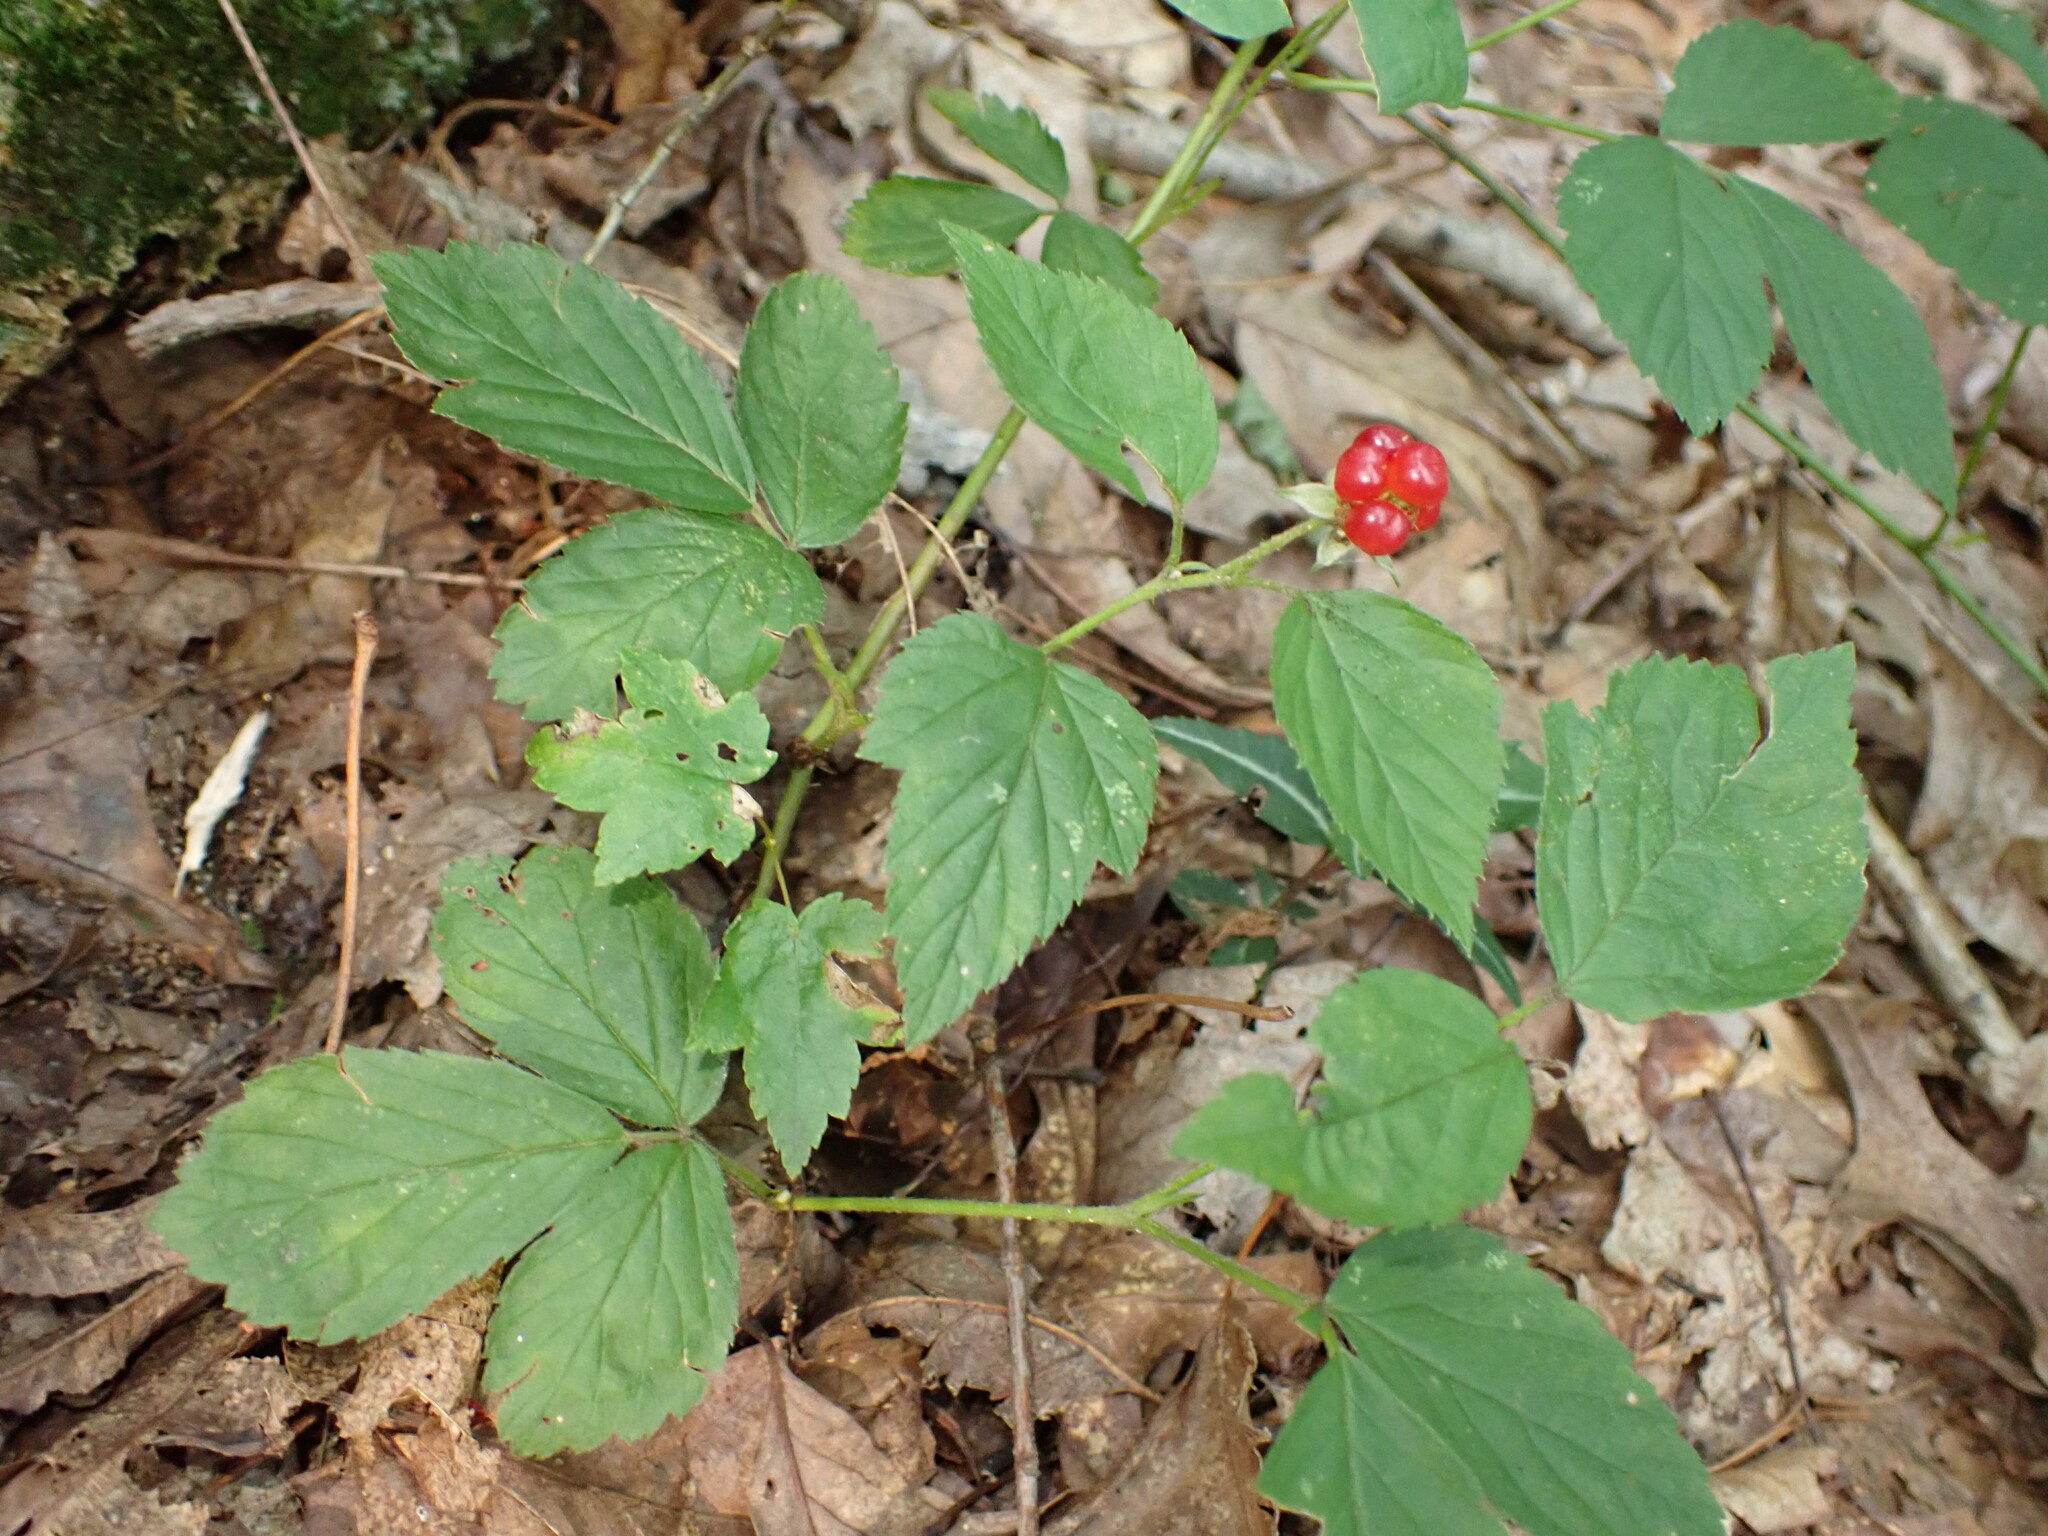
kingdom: Plantae
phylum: Tracheophyta
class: Magnoliopsida
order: Rosales
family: Rosaceae
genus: Rubus
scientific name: Rubus flagellaris
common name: American dewberry
